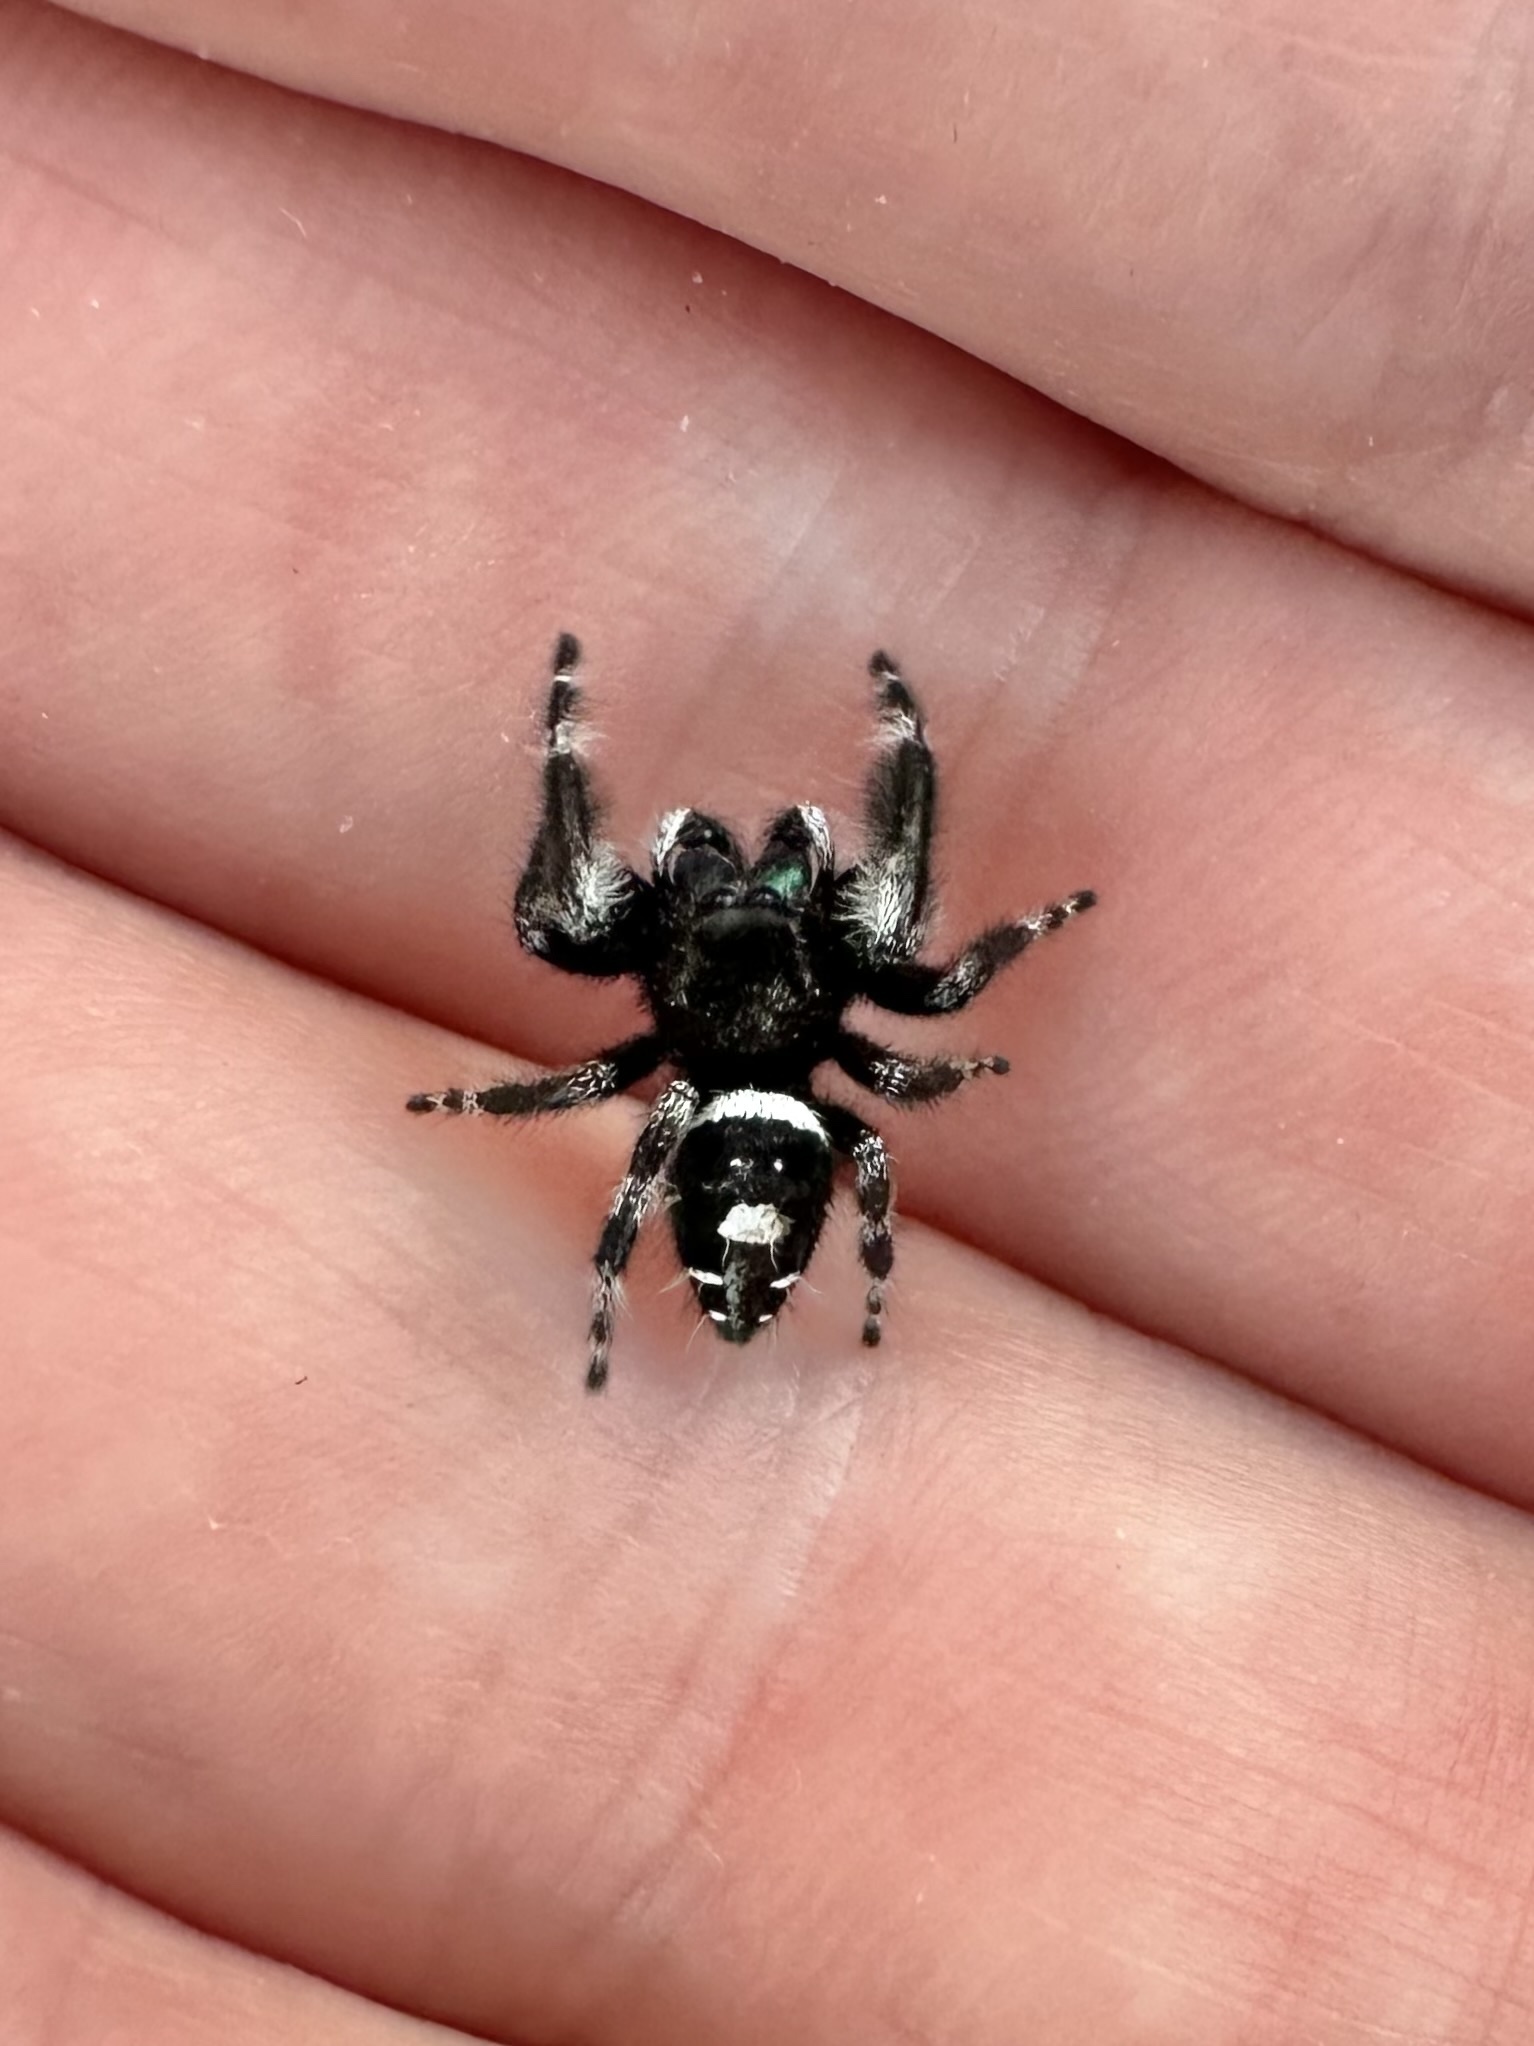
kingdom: Animalia
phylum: Arthropoda
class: Arachnida
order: Araneae
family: Salticidae
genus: Phidippus
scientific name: Phidippus audax
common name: Bold jumper
